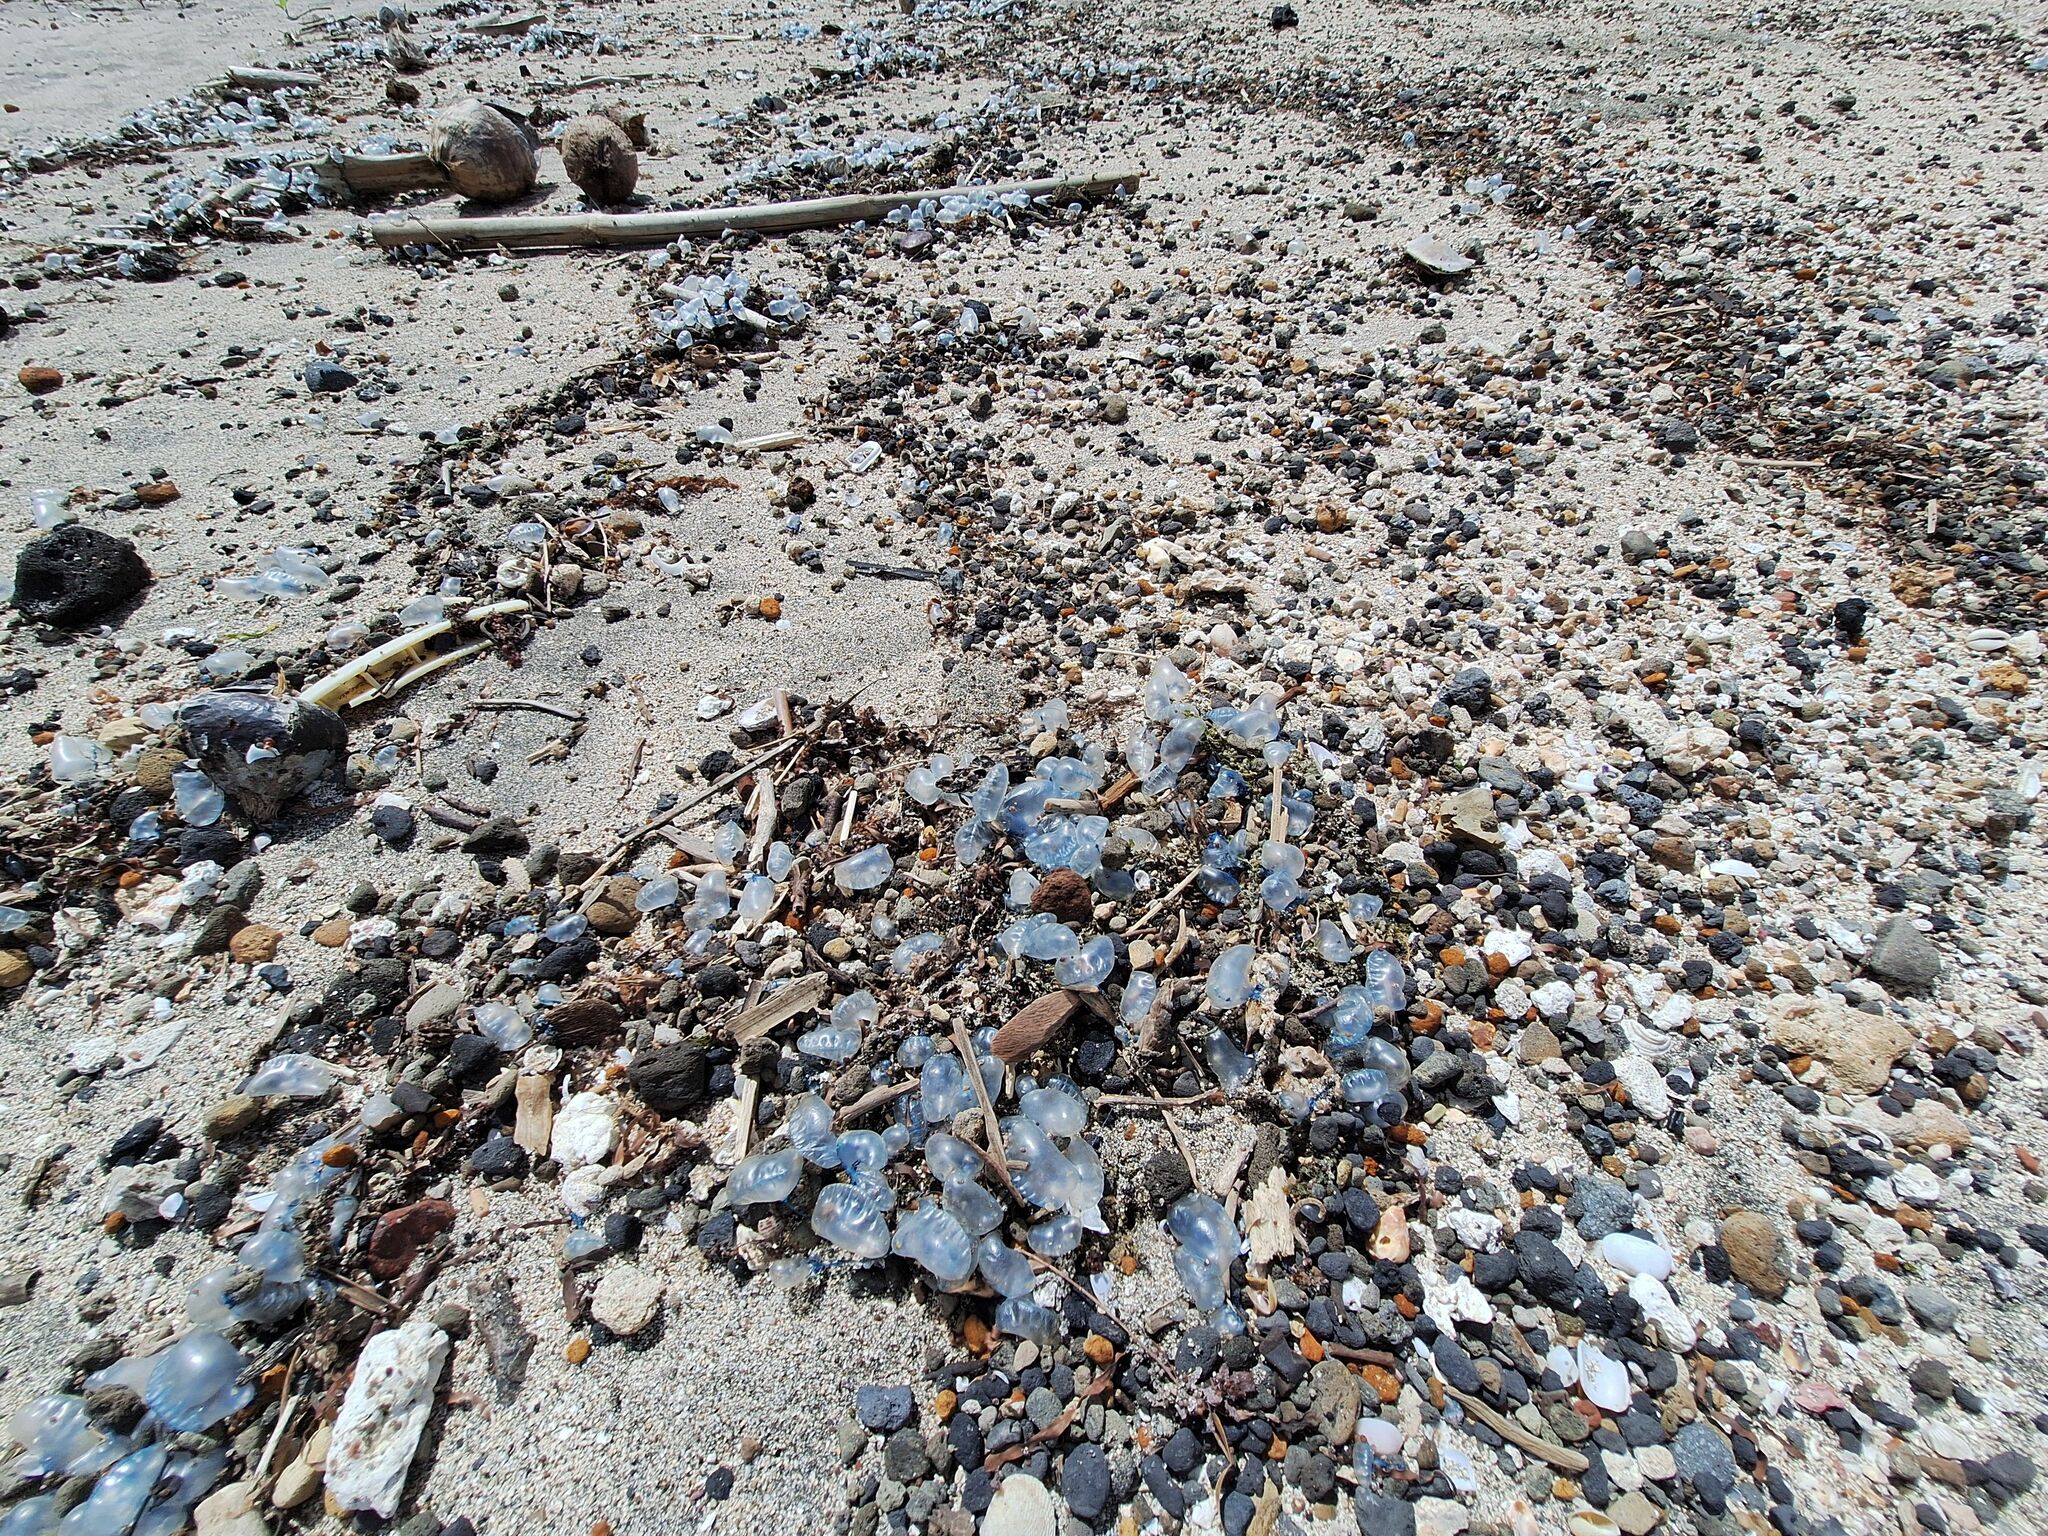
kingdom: Animalia
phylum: Cnidaria
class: Hydrozoa
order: Siphonophorae
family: Physaliidae
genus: Physalia
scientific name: Physalia physalis
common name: Portuguese man-of-war
